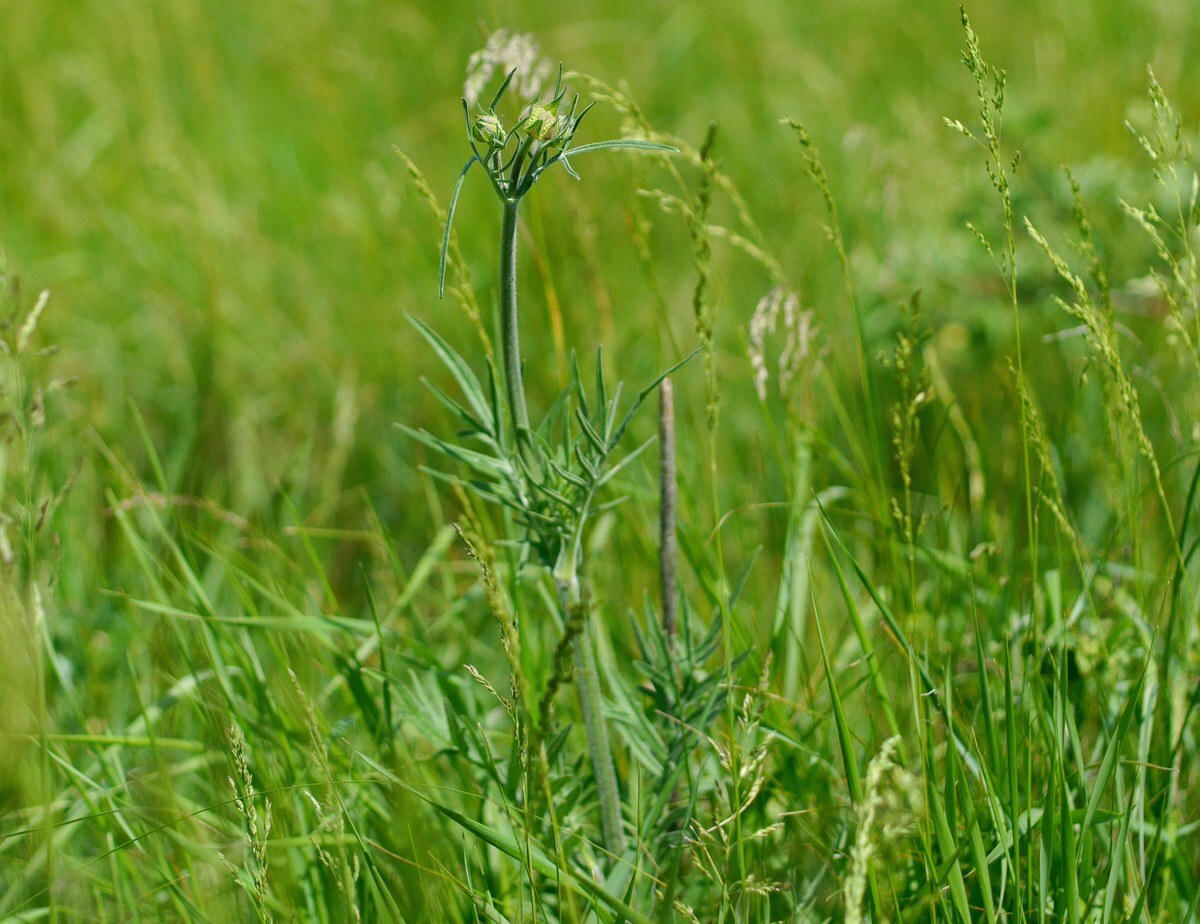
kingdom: Plantae
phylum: Tracheophyta
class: Magnoliopsida
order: Dipsacales
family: Caprifoliaceae
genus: Knautia
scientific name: Knautia arvensis
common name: Field scabiosa
